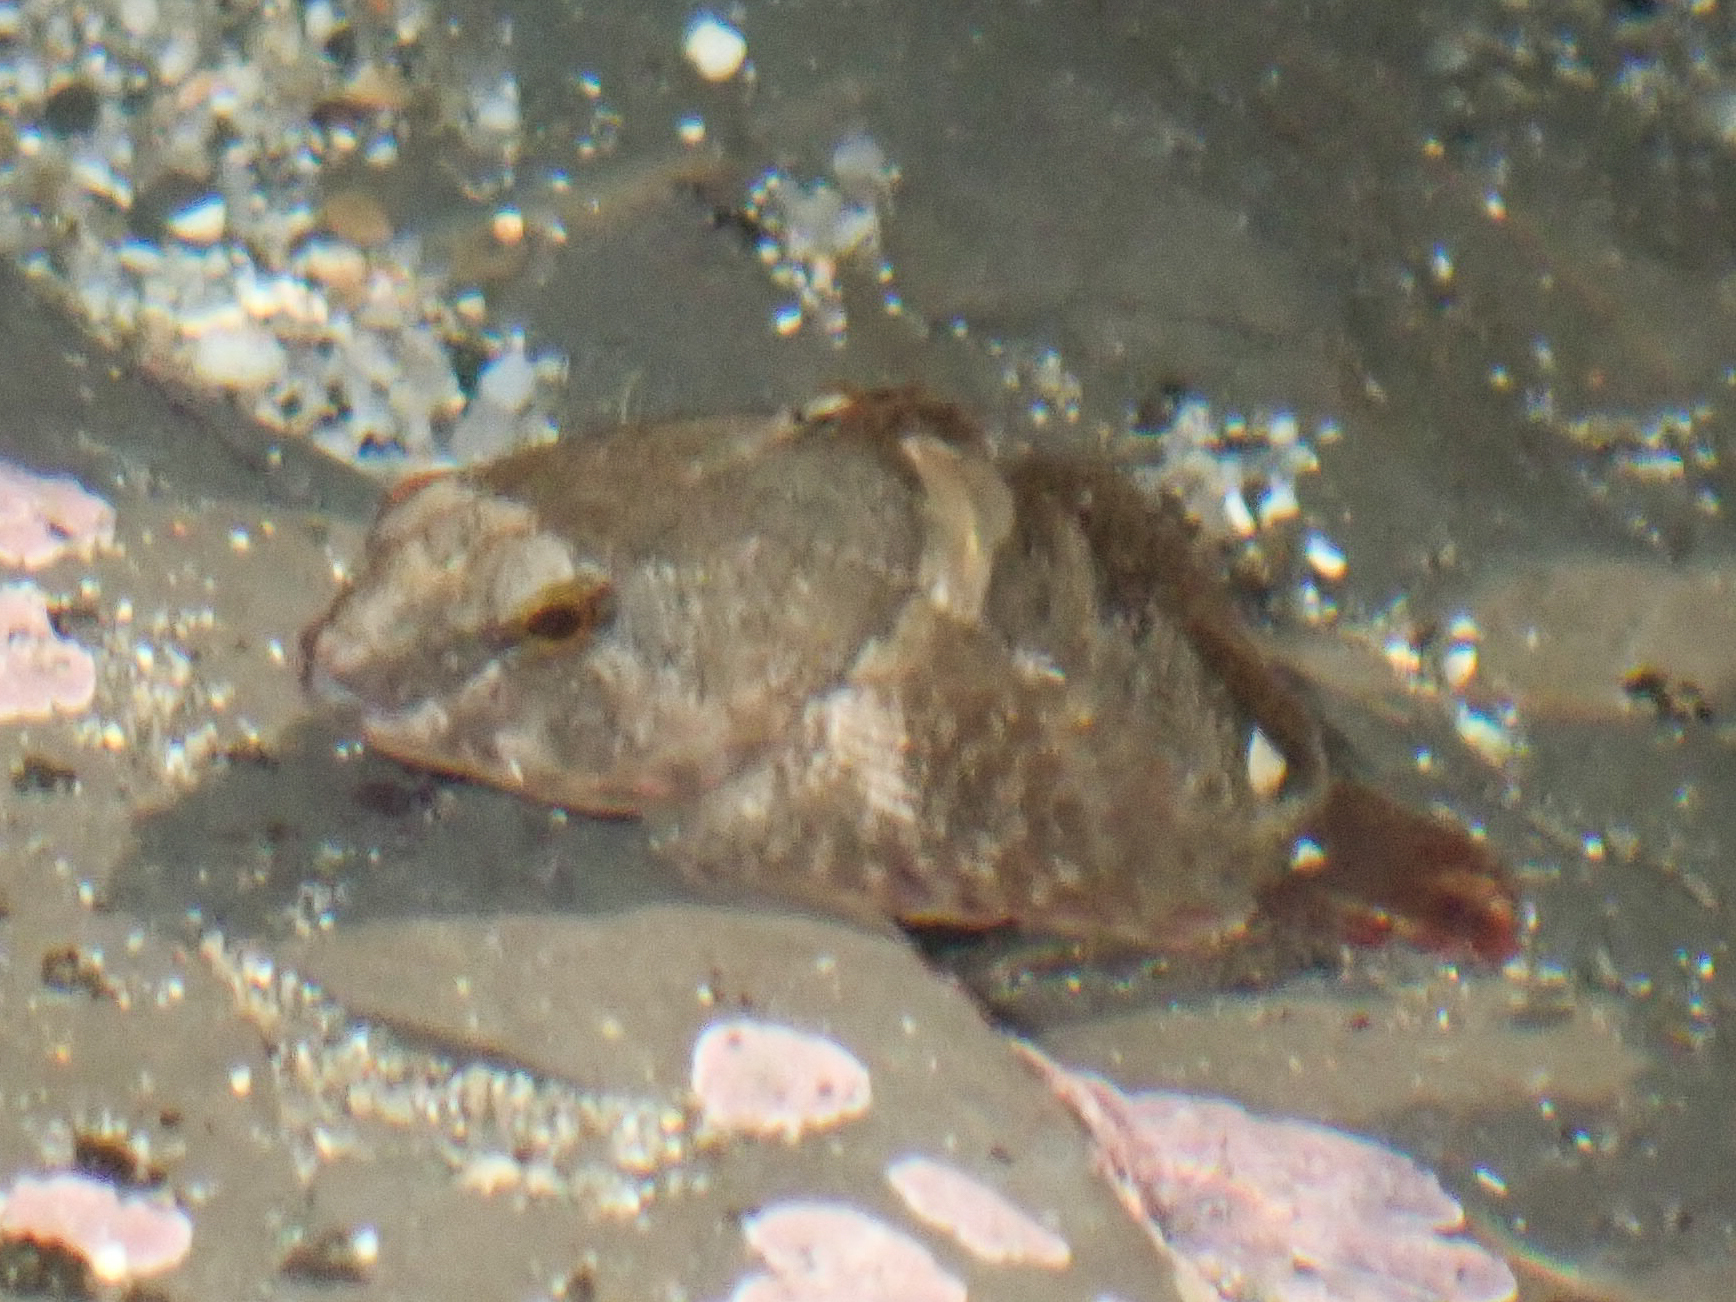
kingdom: Animalia
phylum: Chordata
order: Scorpaeniformes
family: Cottidae
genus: Oligocottus
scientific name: Oligocottus maculosus
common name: Tidepool sculpin
